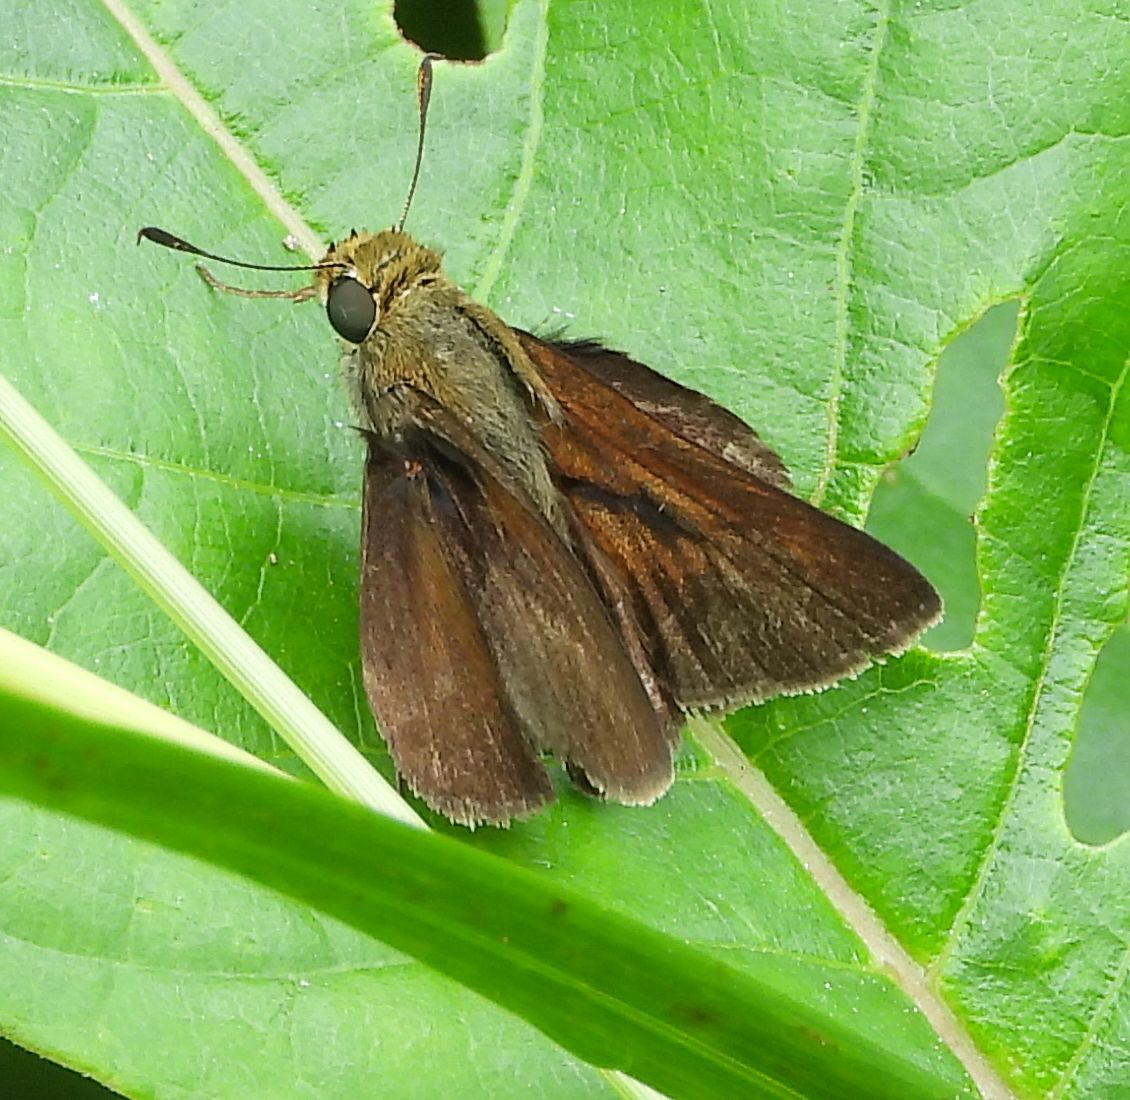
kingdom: Animalia
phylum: Arthropoda
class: Insecta
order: Lepidoptera
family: Hesperiidae
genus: Euphyes
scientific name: Euphyes vestris
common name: Dun skipper
